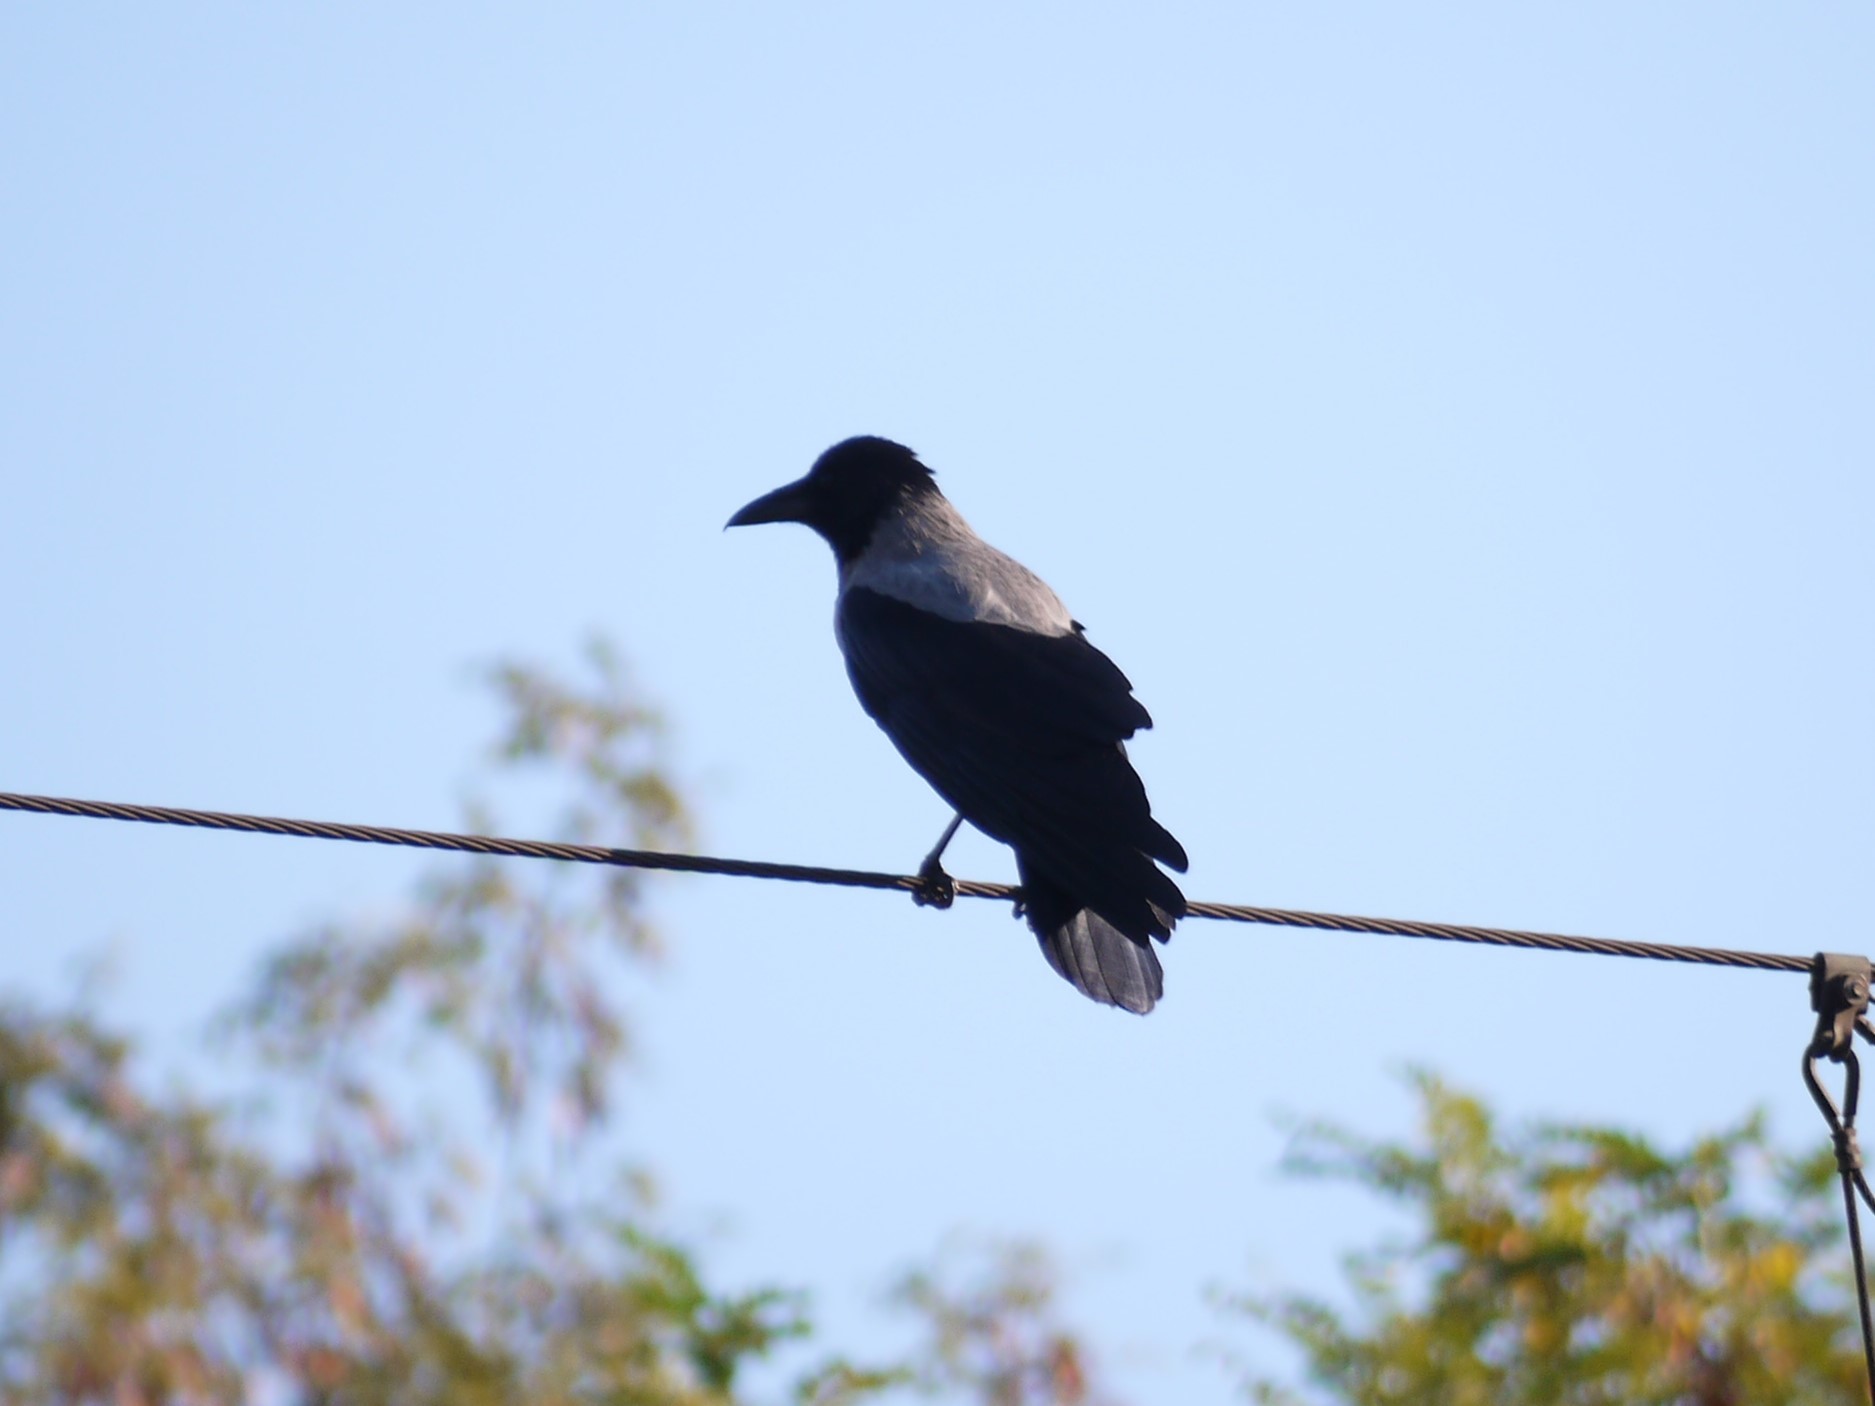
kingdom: Animalia
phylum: Chordata
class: Aves
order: Passeriformes
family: Corvidae
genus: Corvus
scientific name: Corvus cornix
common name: Hooded crow
